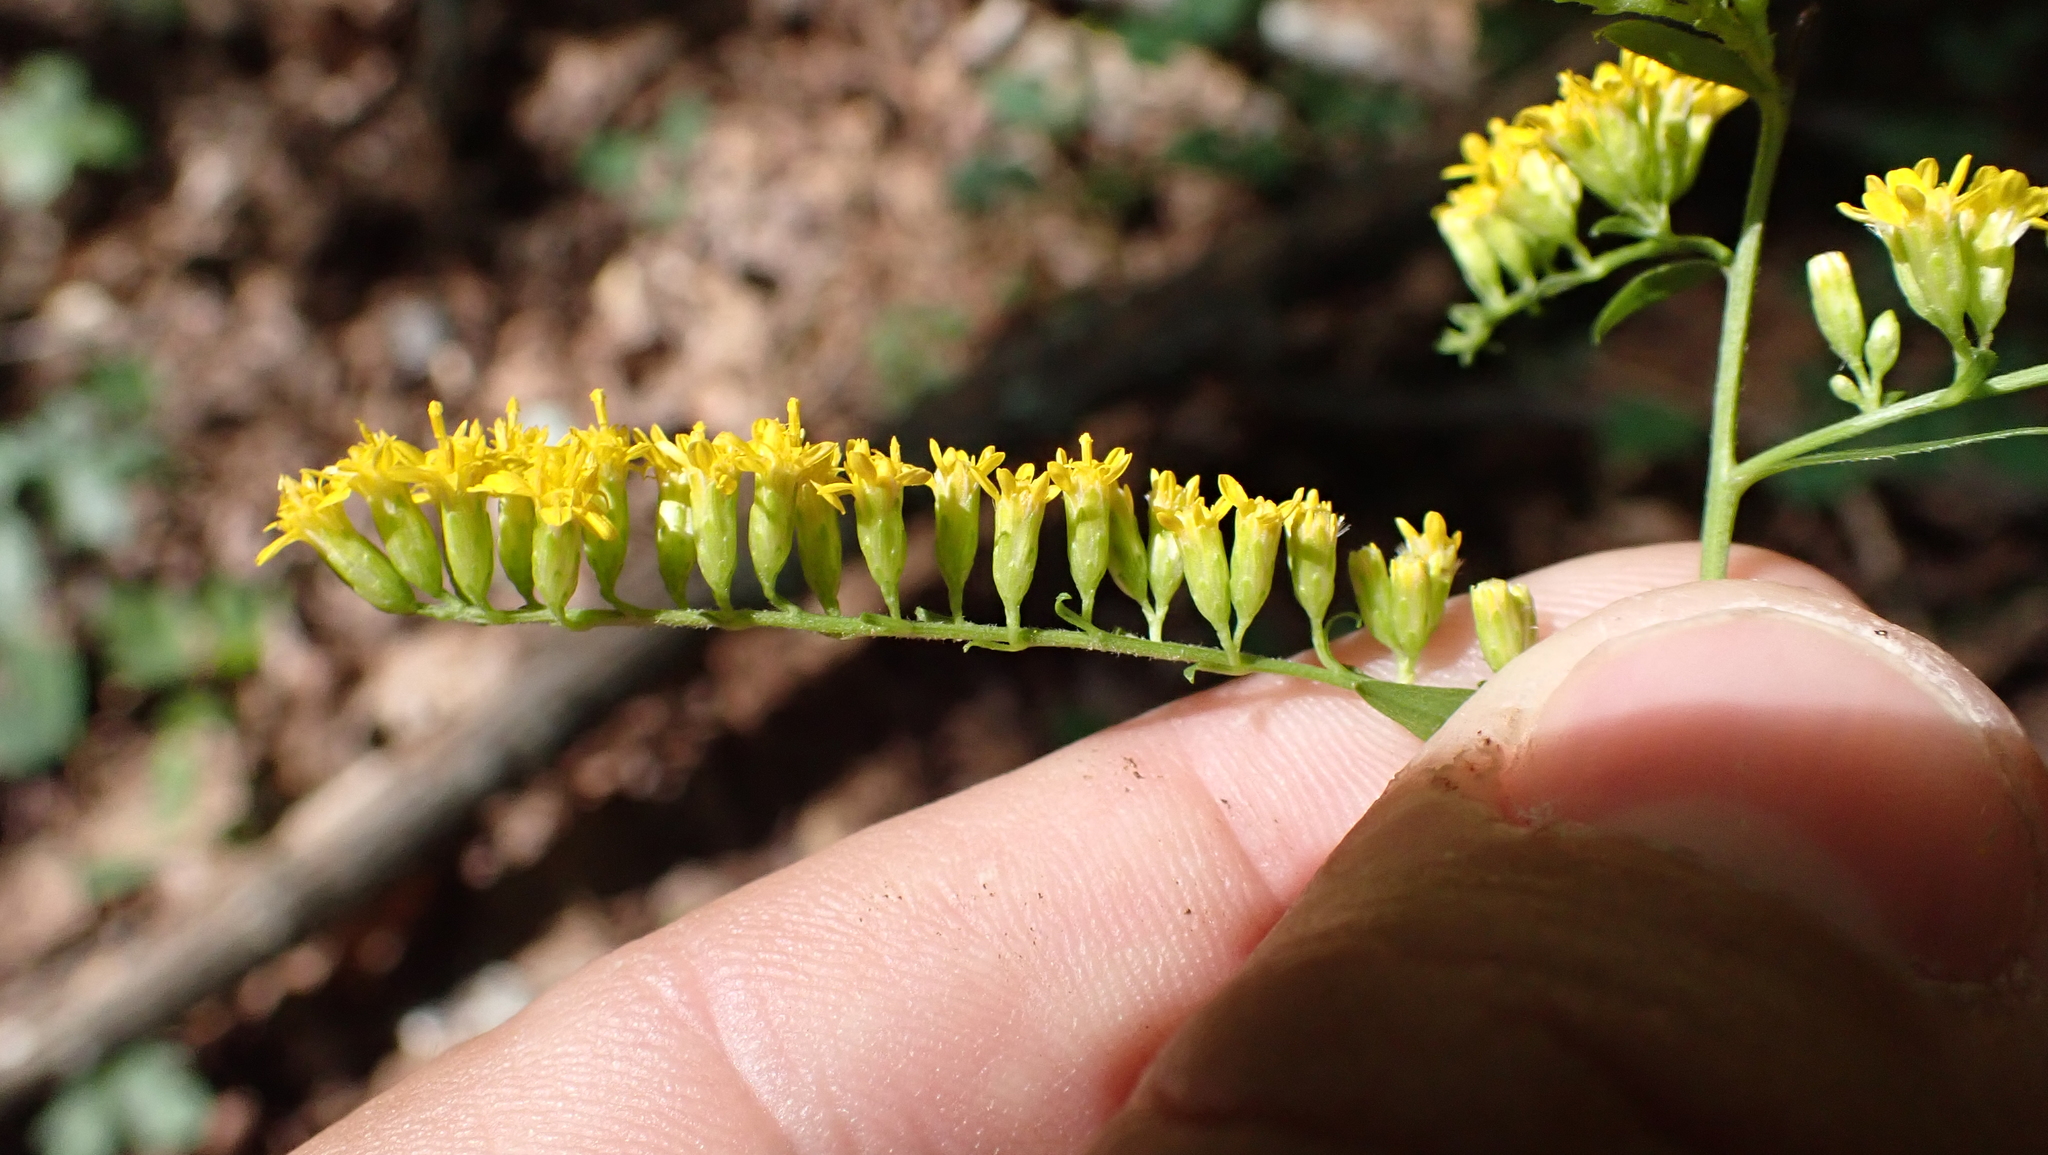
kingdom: Plantae
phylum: Tracheophyta
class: Magnoliopsida
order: Asterales
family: Asteraceae
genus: Solidago
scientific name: Solidago ulmifolia
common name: Elm-leaf goldenrod
